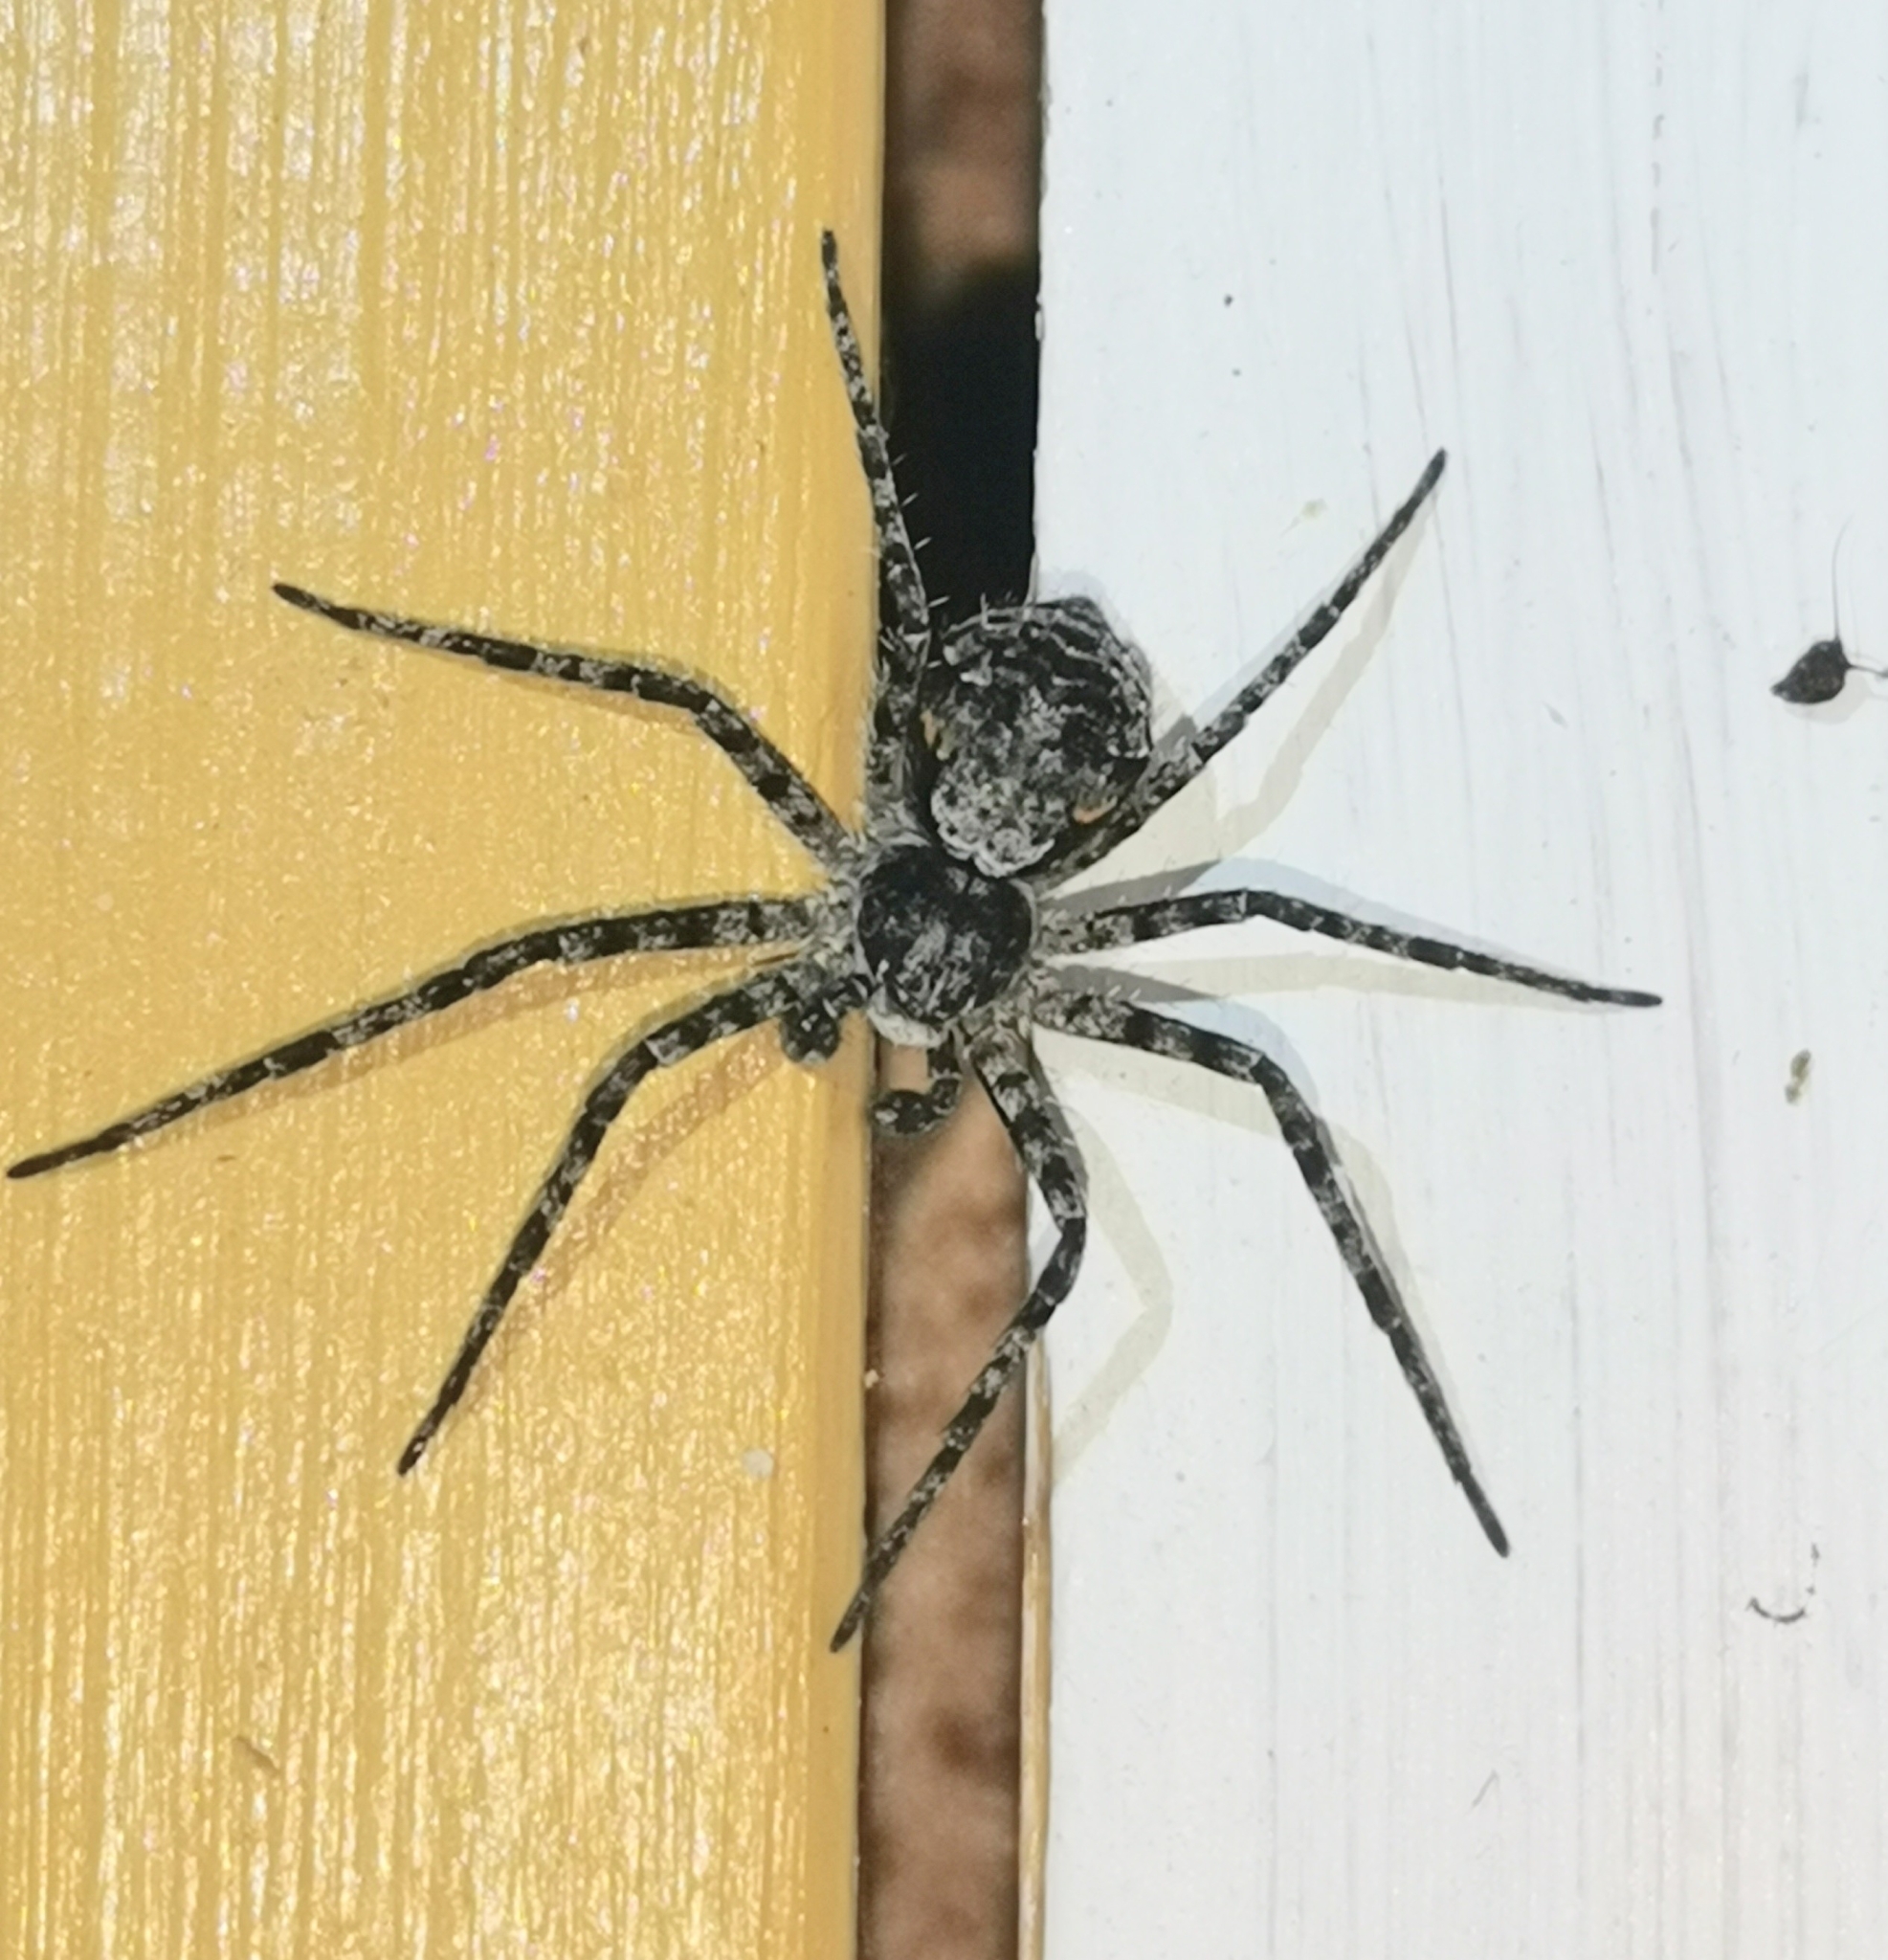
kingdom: Animalia
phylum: Arthropoda
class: Arachnida
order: Araneae
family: Philodromidae
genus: Philodromus
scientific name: Philodromus margaritatus
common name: Lichen running-spider
